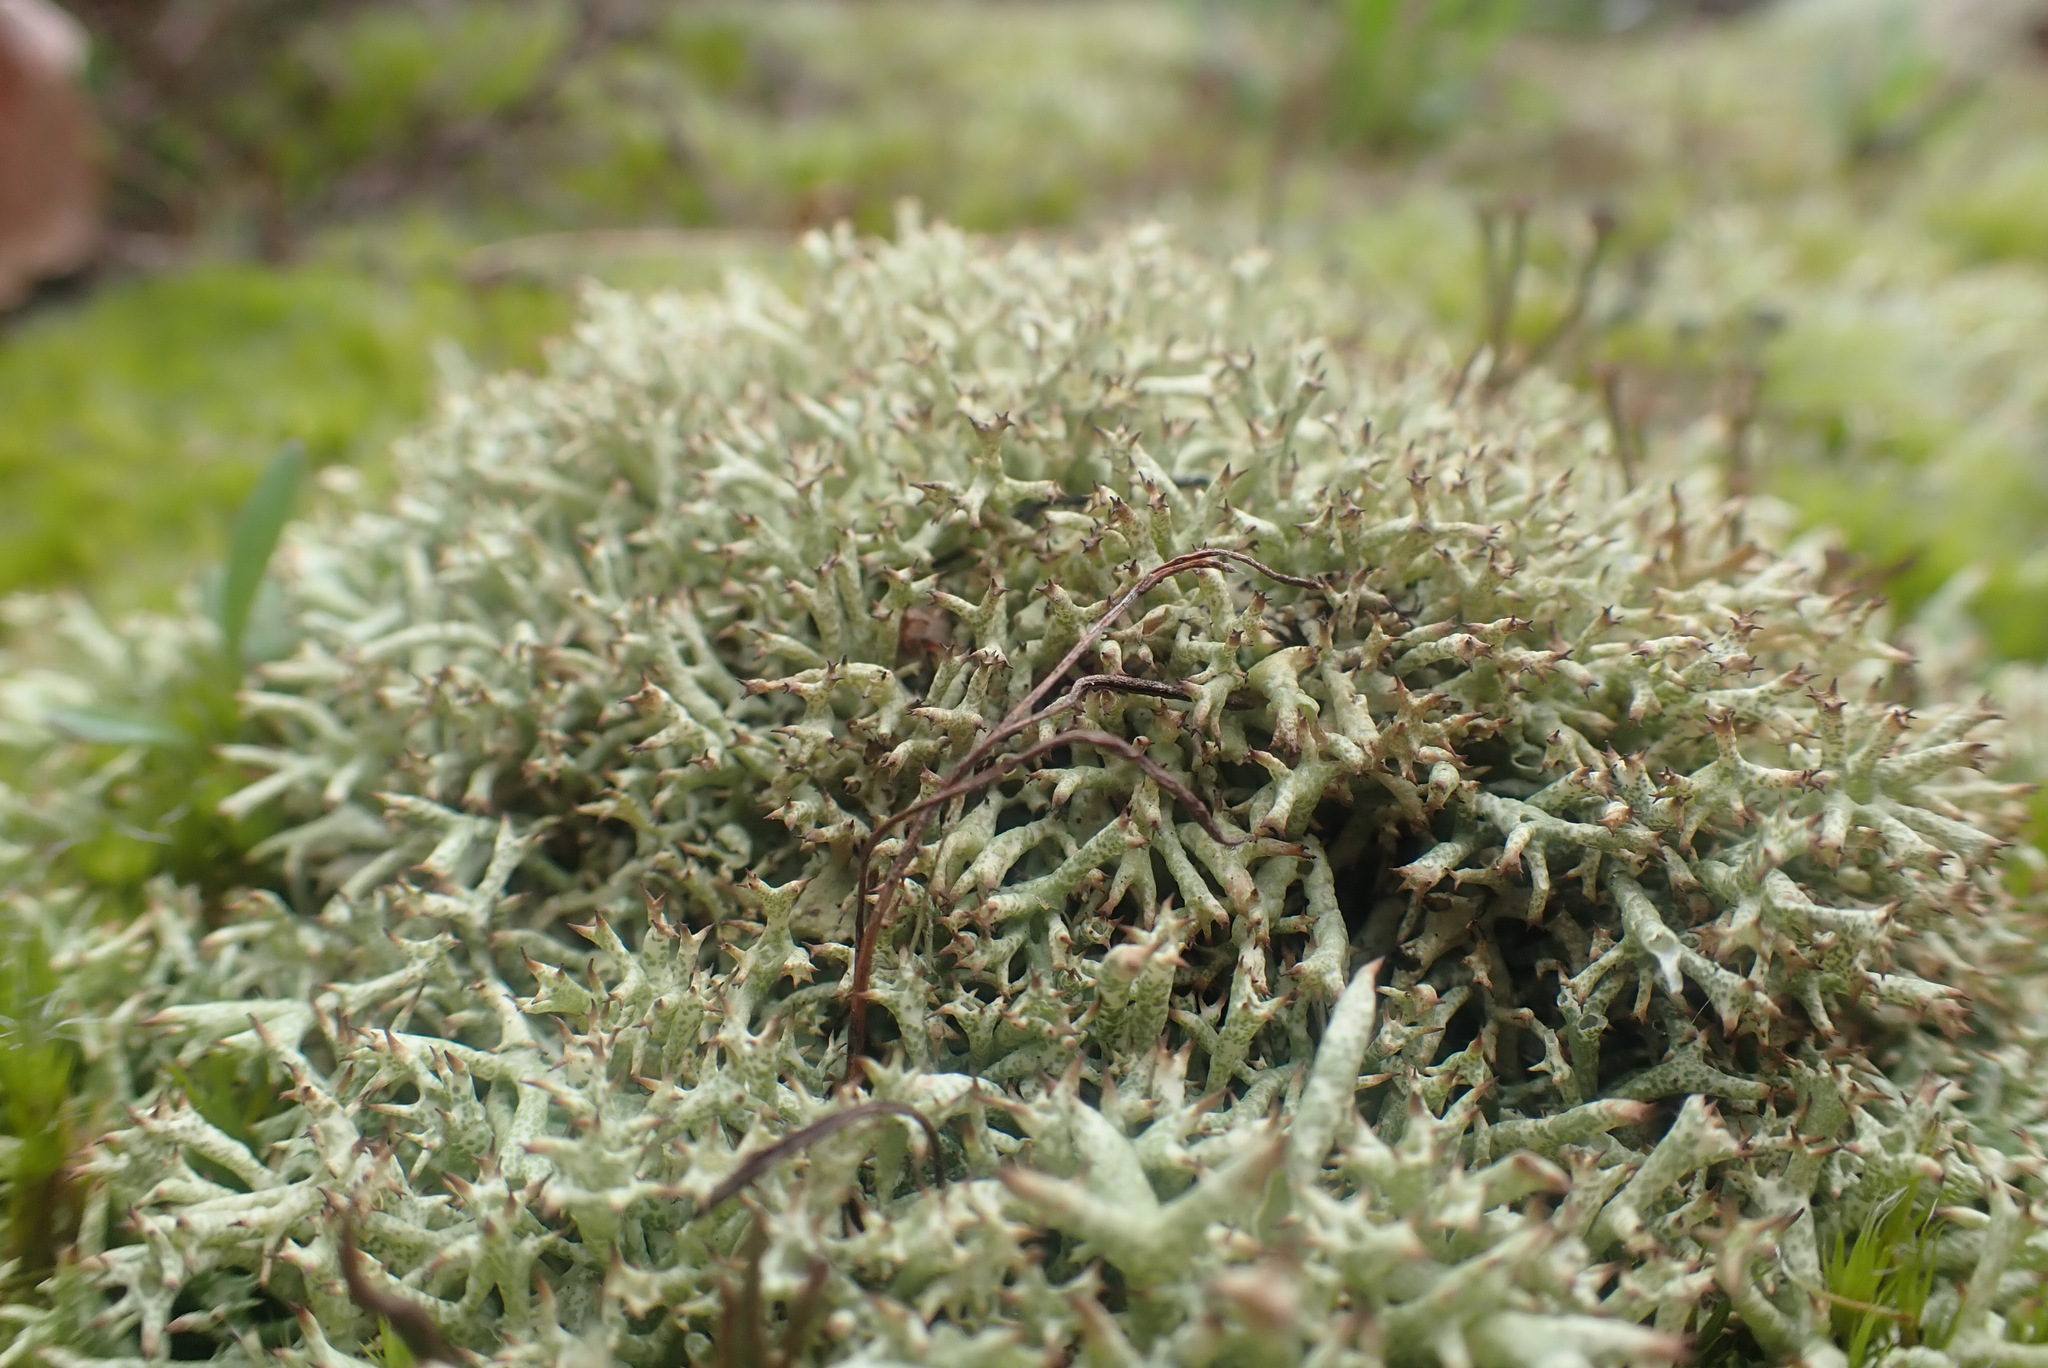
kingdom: Fungi
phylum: Ascomycota
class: Lecanoromycetes
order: Lecanorales
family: Cladoniaceae
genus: Cladonia
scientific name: Cladonia uncialis
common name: Thorn lichen
